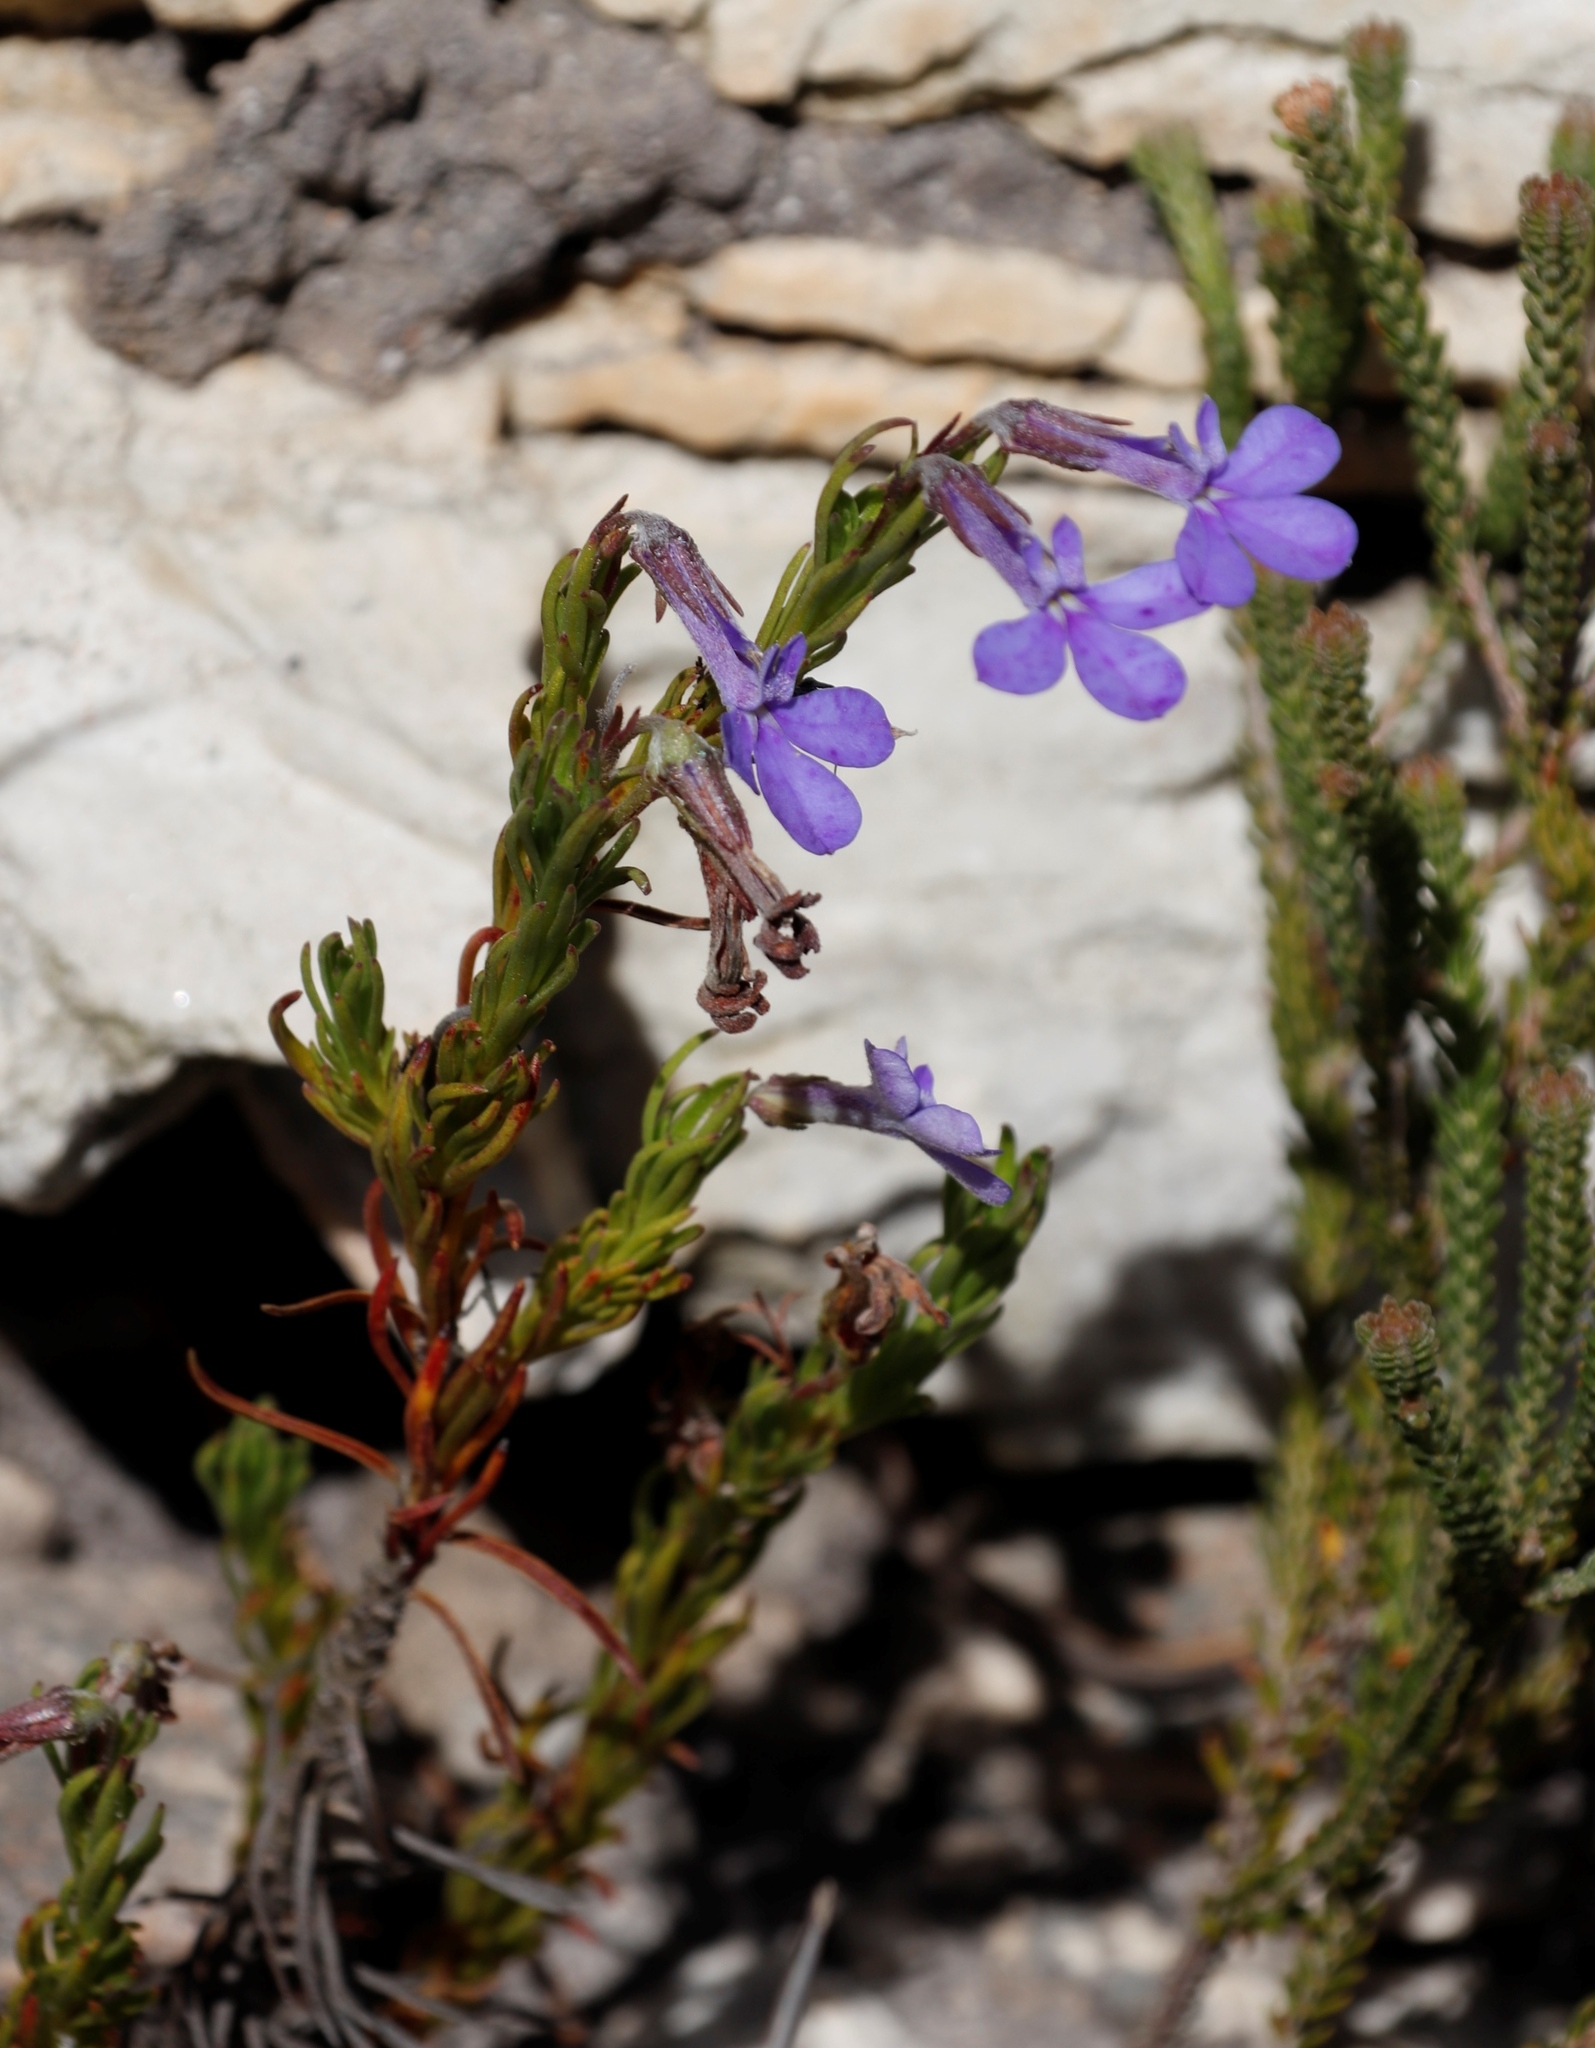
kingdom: Plantae
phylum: Tracheophyta
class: Magnoliopsida
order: Asterales
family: Campanulaceae
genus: Lobelia
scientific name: Lobelia pinifolia
